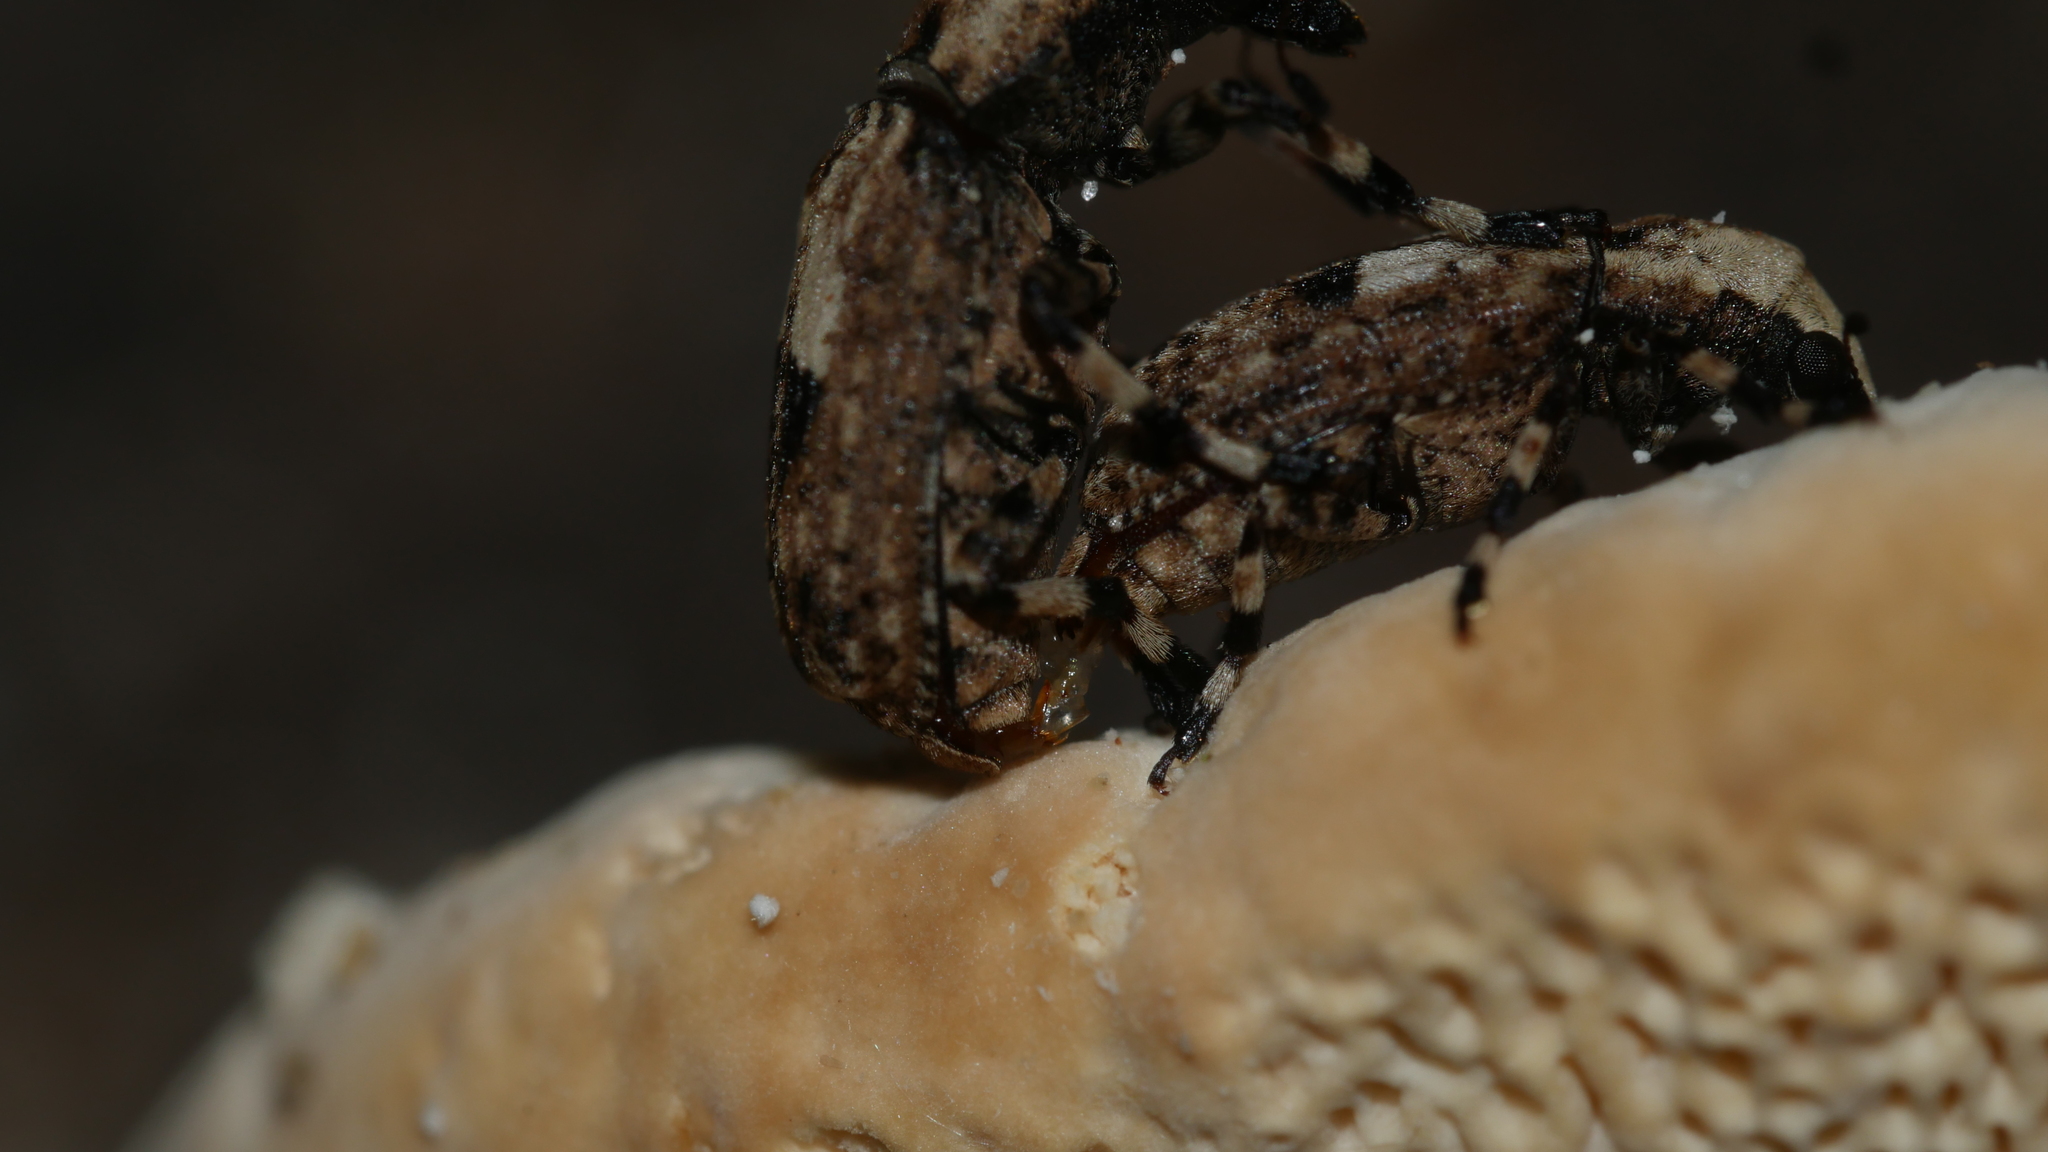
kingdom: Animalia
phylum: Arthropoda
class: Insecta
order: Coleoptera
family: Anthribidae
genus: Euparius
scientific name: Euparius marmoreus
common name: Marbled fungus weevil
